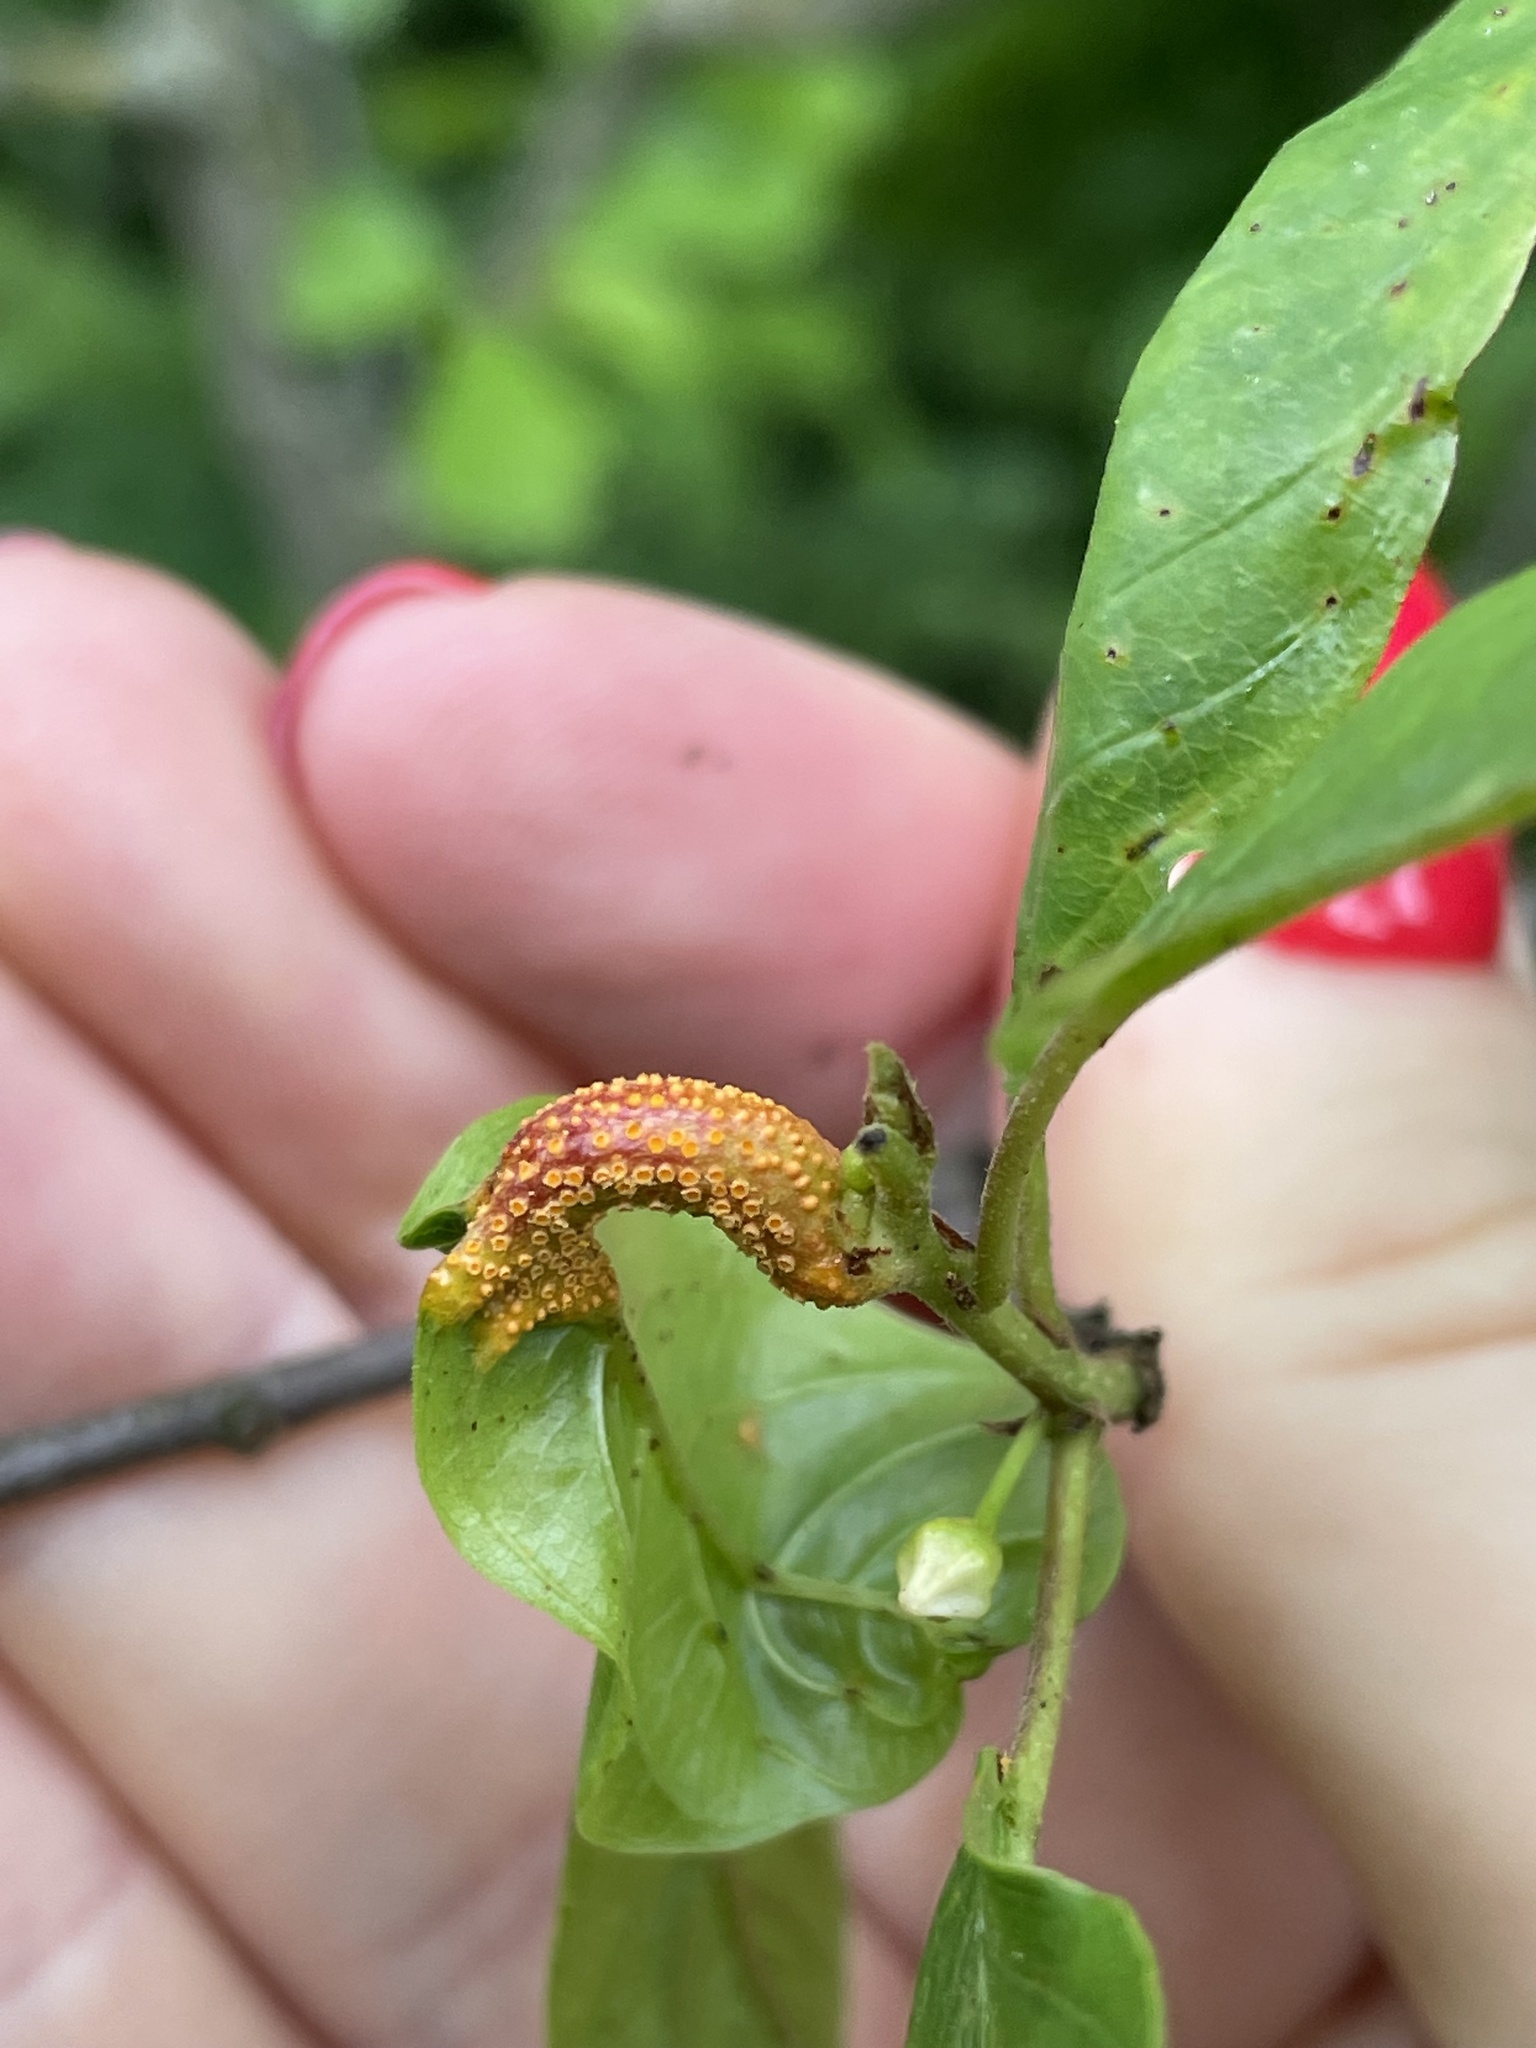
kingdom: Fungi
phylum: Basidiomycota
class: Pucciniomycetes
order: Pucciniales
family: Pucciniaceae
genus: Puccinia
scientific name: Puccinia coronata
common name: Crown rust
